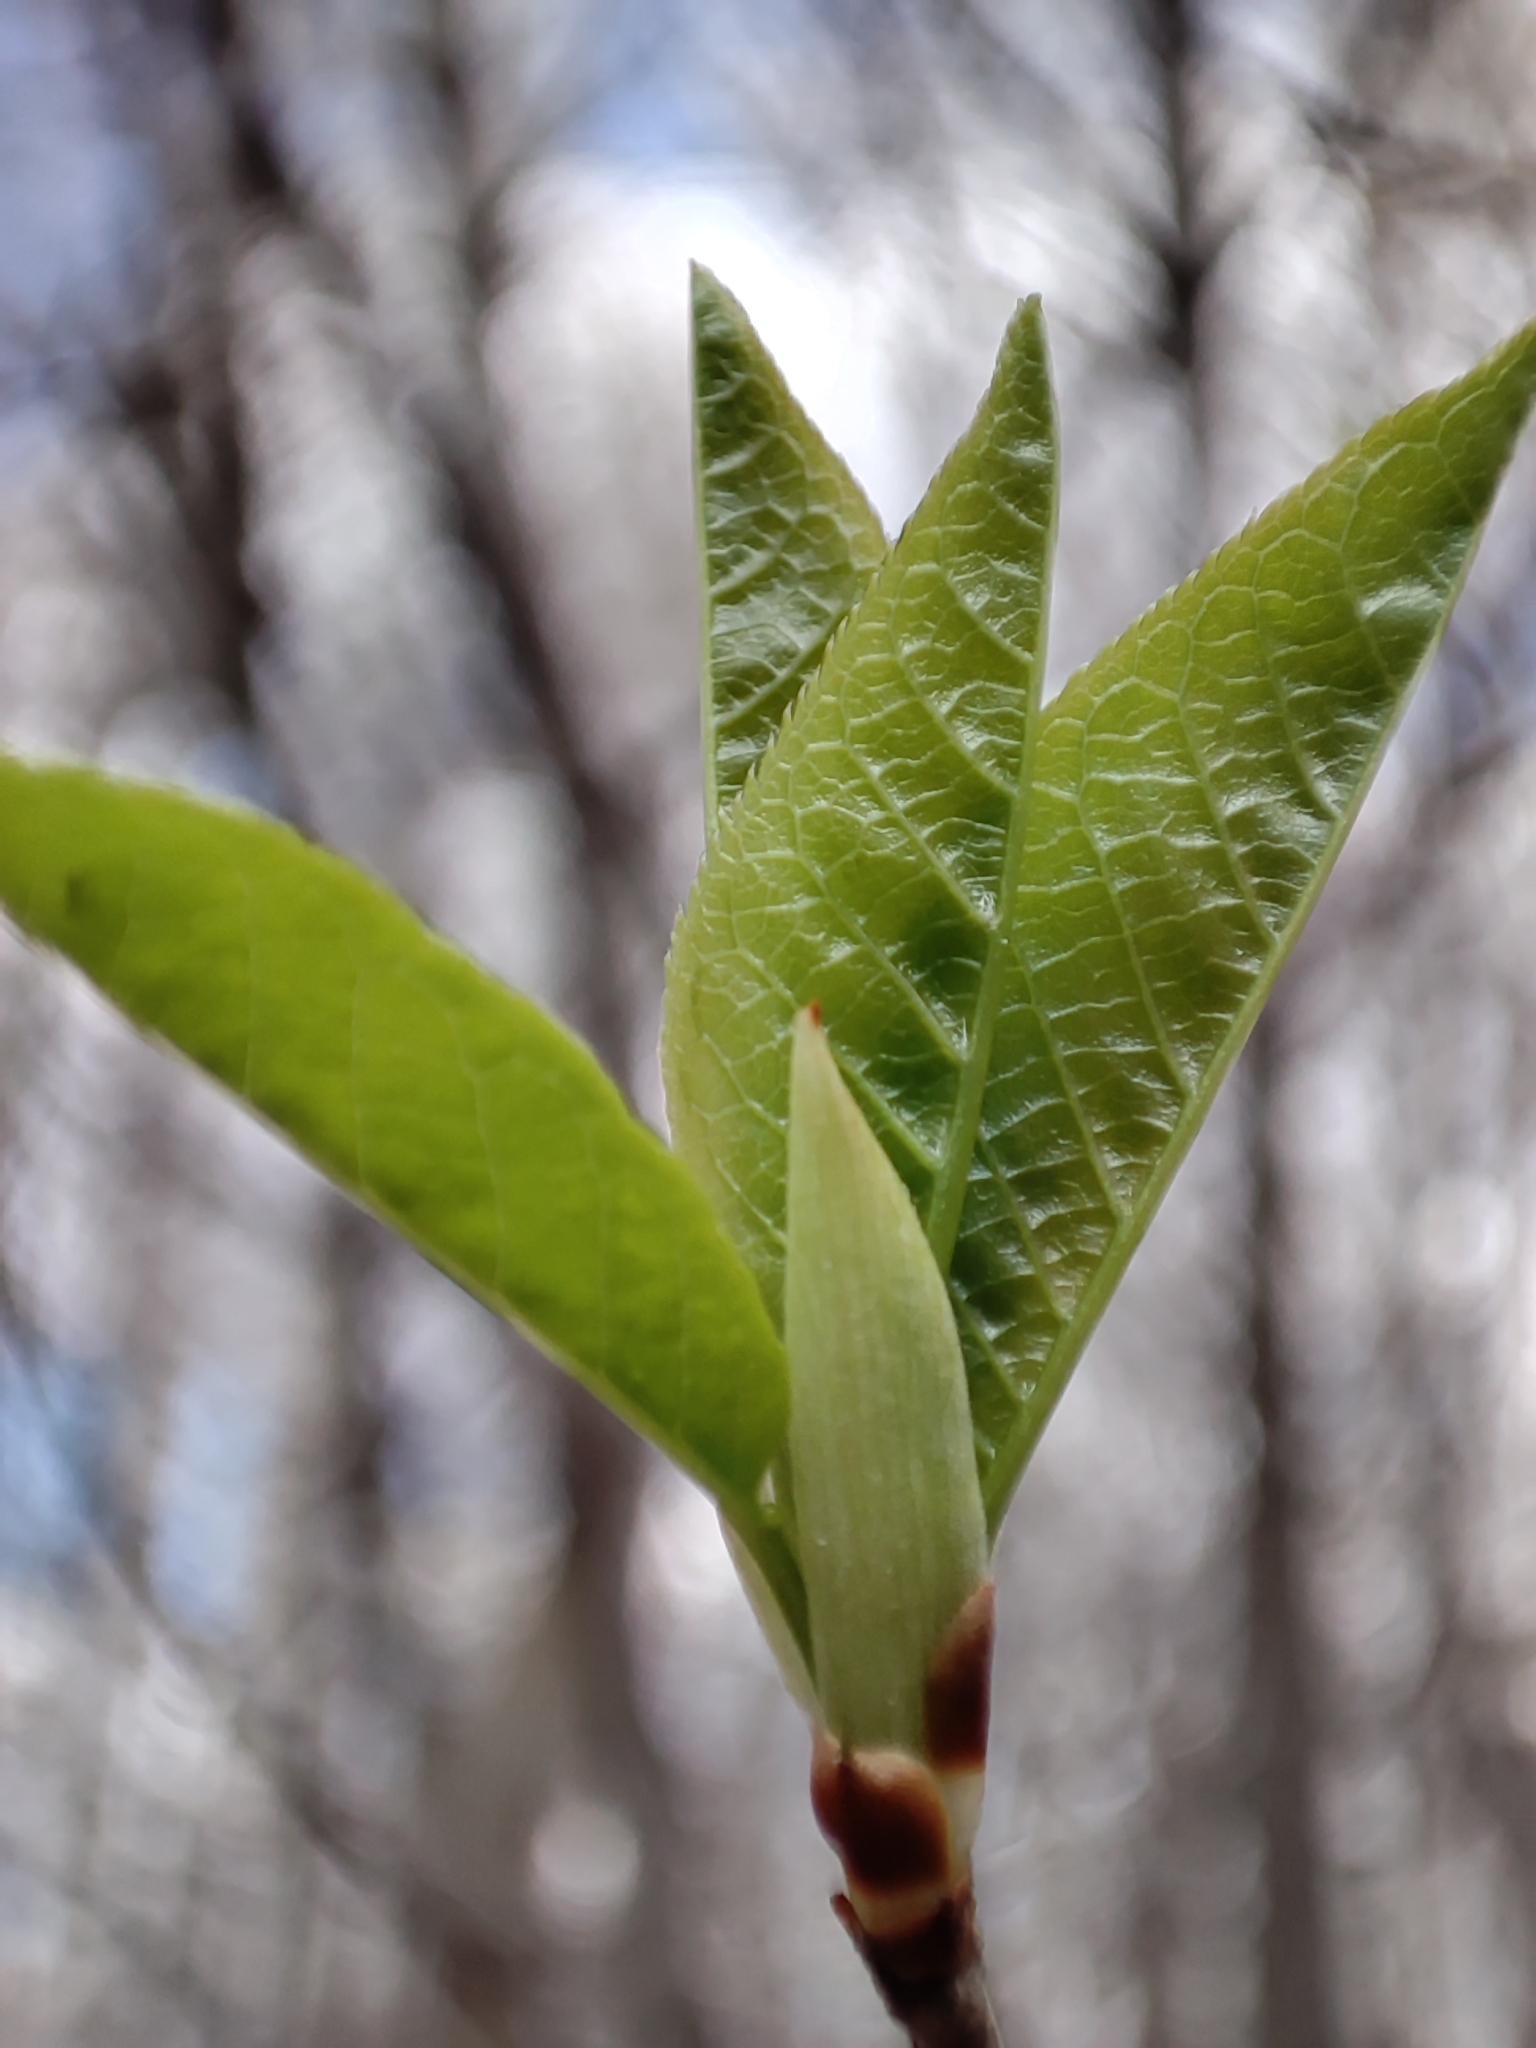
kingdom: Plantae
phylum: Tracheophyta
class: Magnoliopsida
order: Rosales
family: Rosaceae
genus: Prunus
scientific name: Prunus padus
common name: Bird cherry
